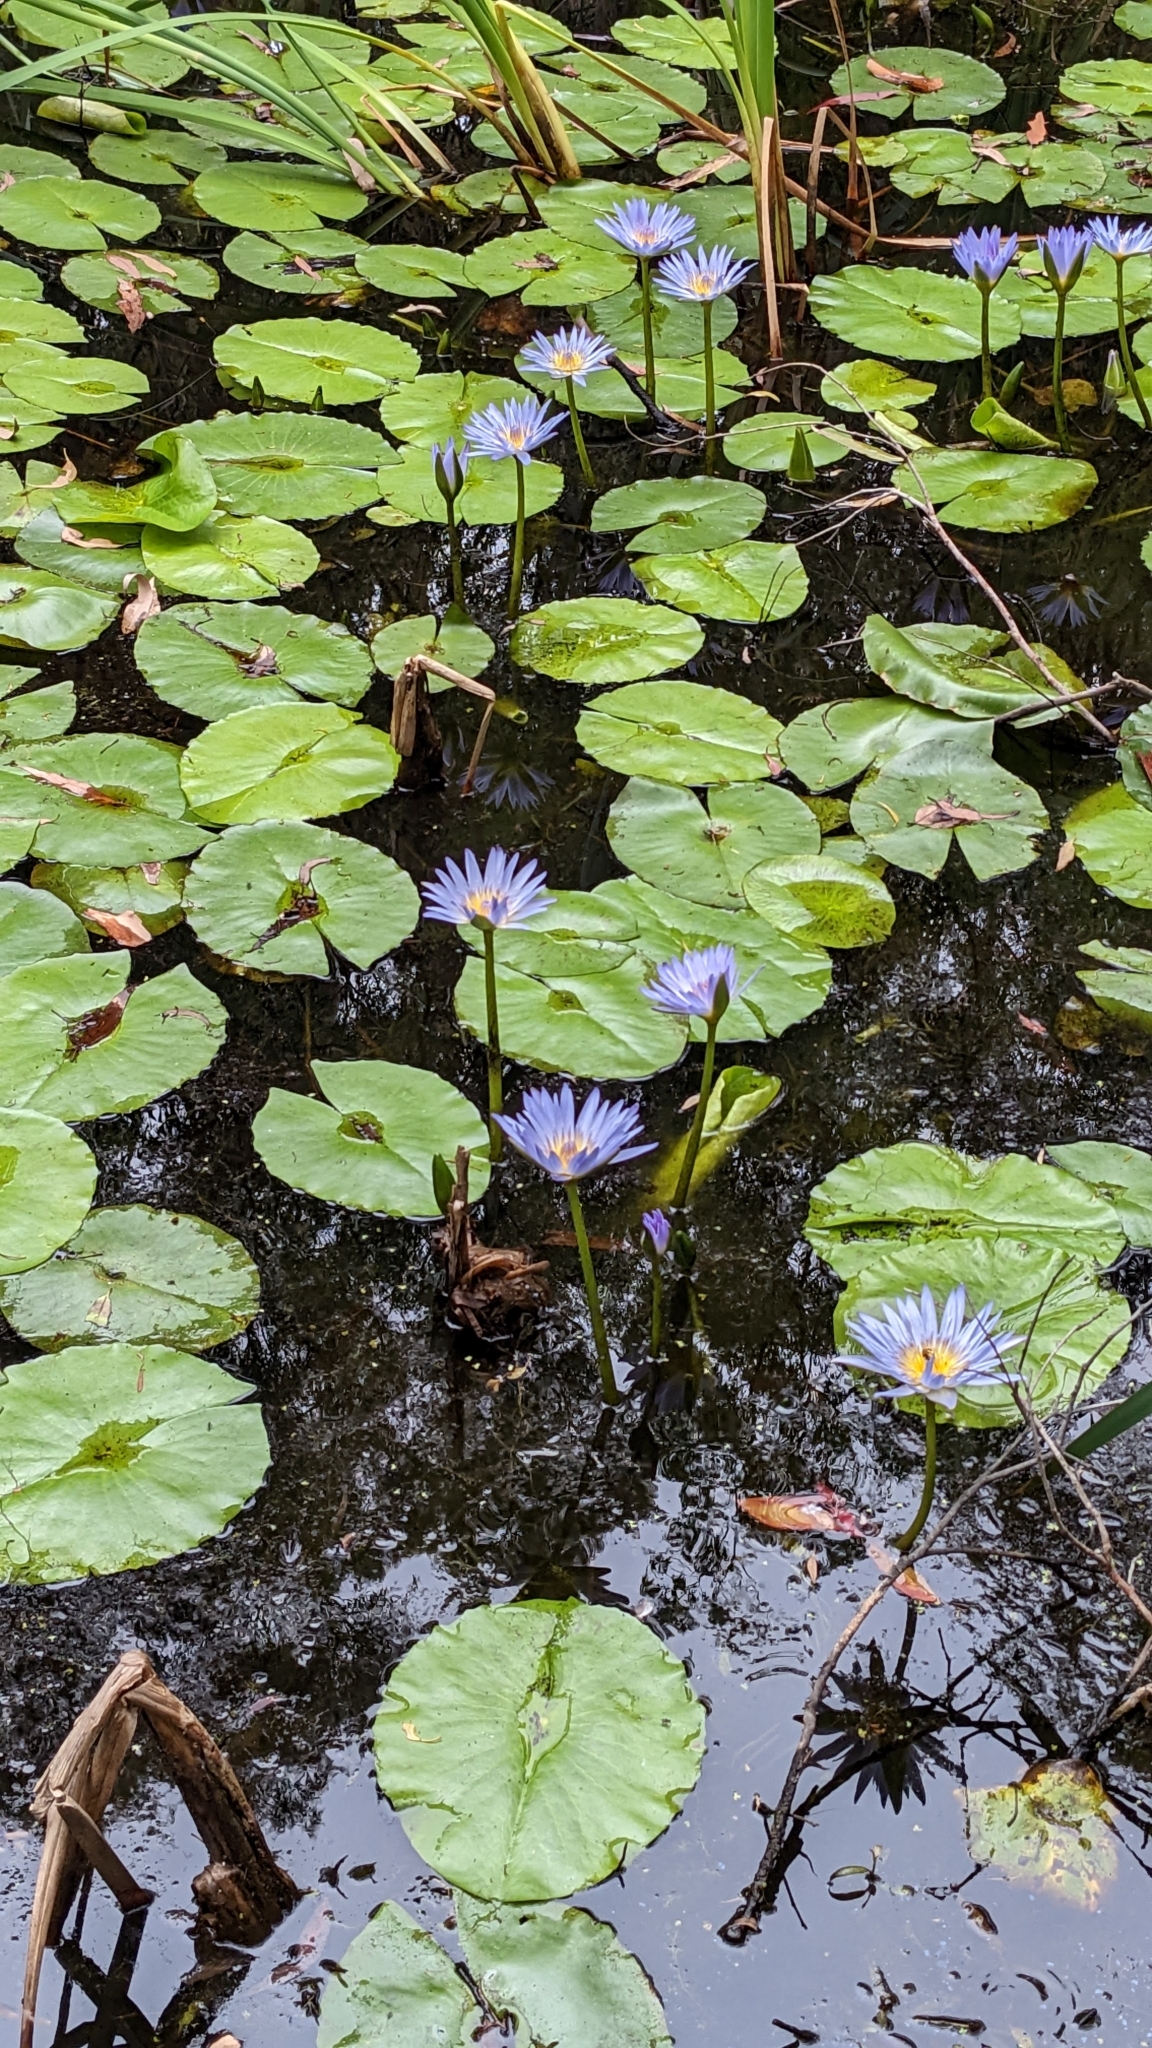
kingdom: Plantae
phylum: Tracheophyta
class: Magnoliopsida
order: Nymphaeales
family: Nymphaeaceae
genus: Nymphaea
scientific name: Nymphaea nouchali
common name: Blue lotus
